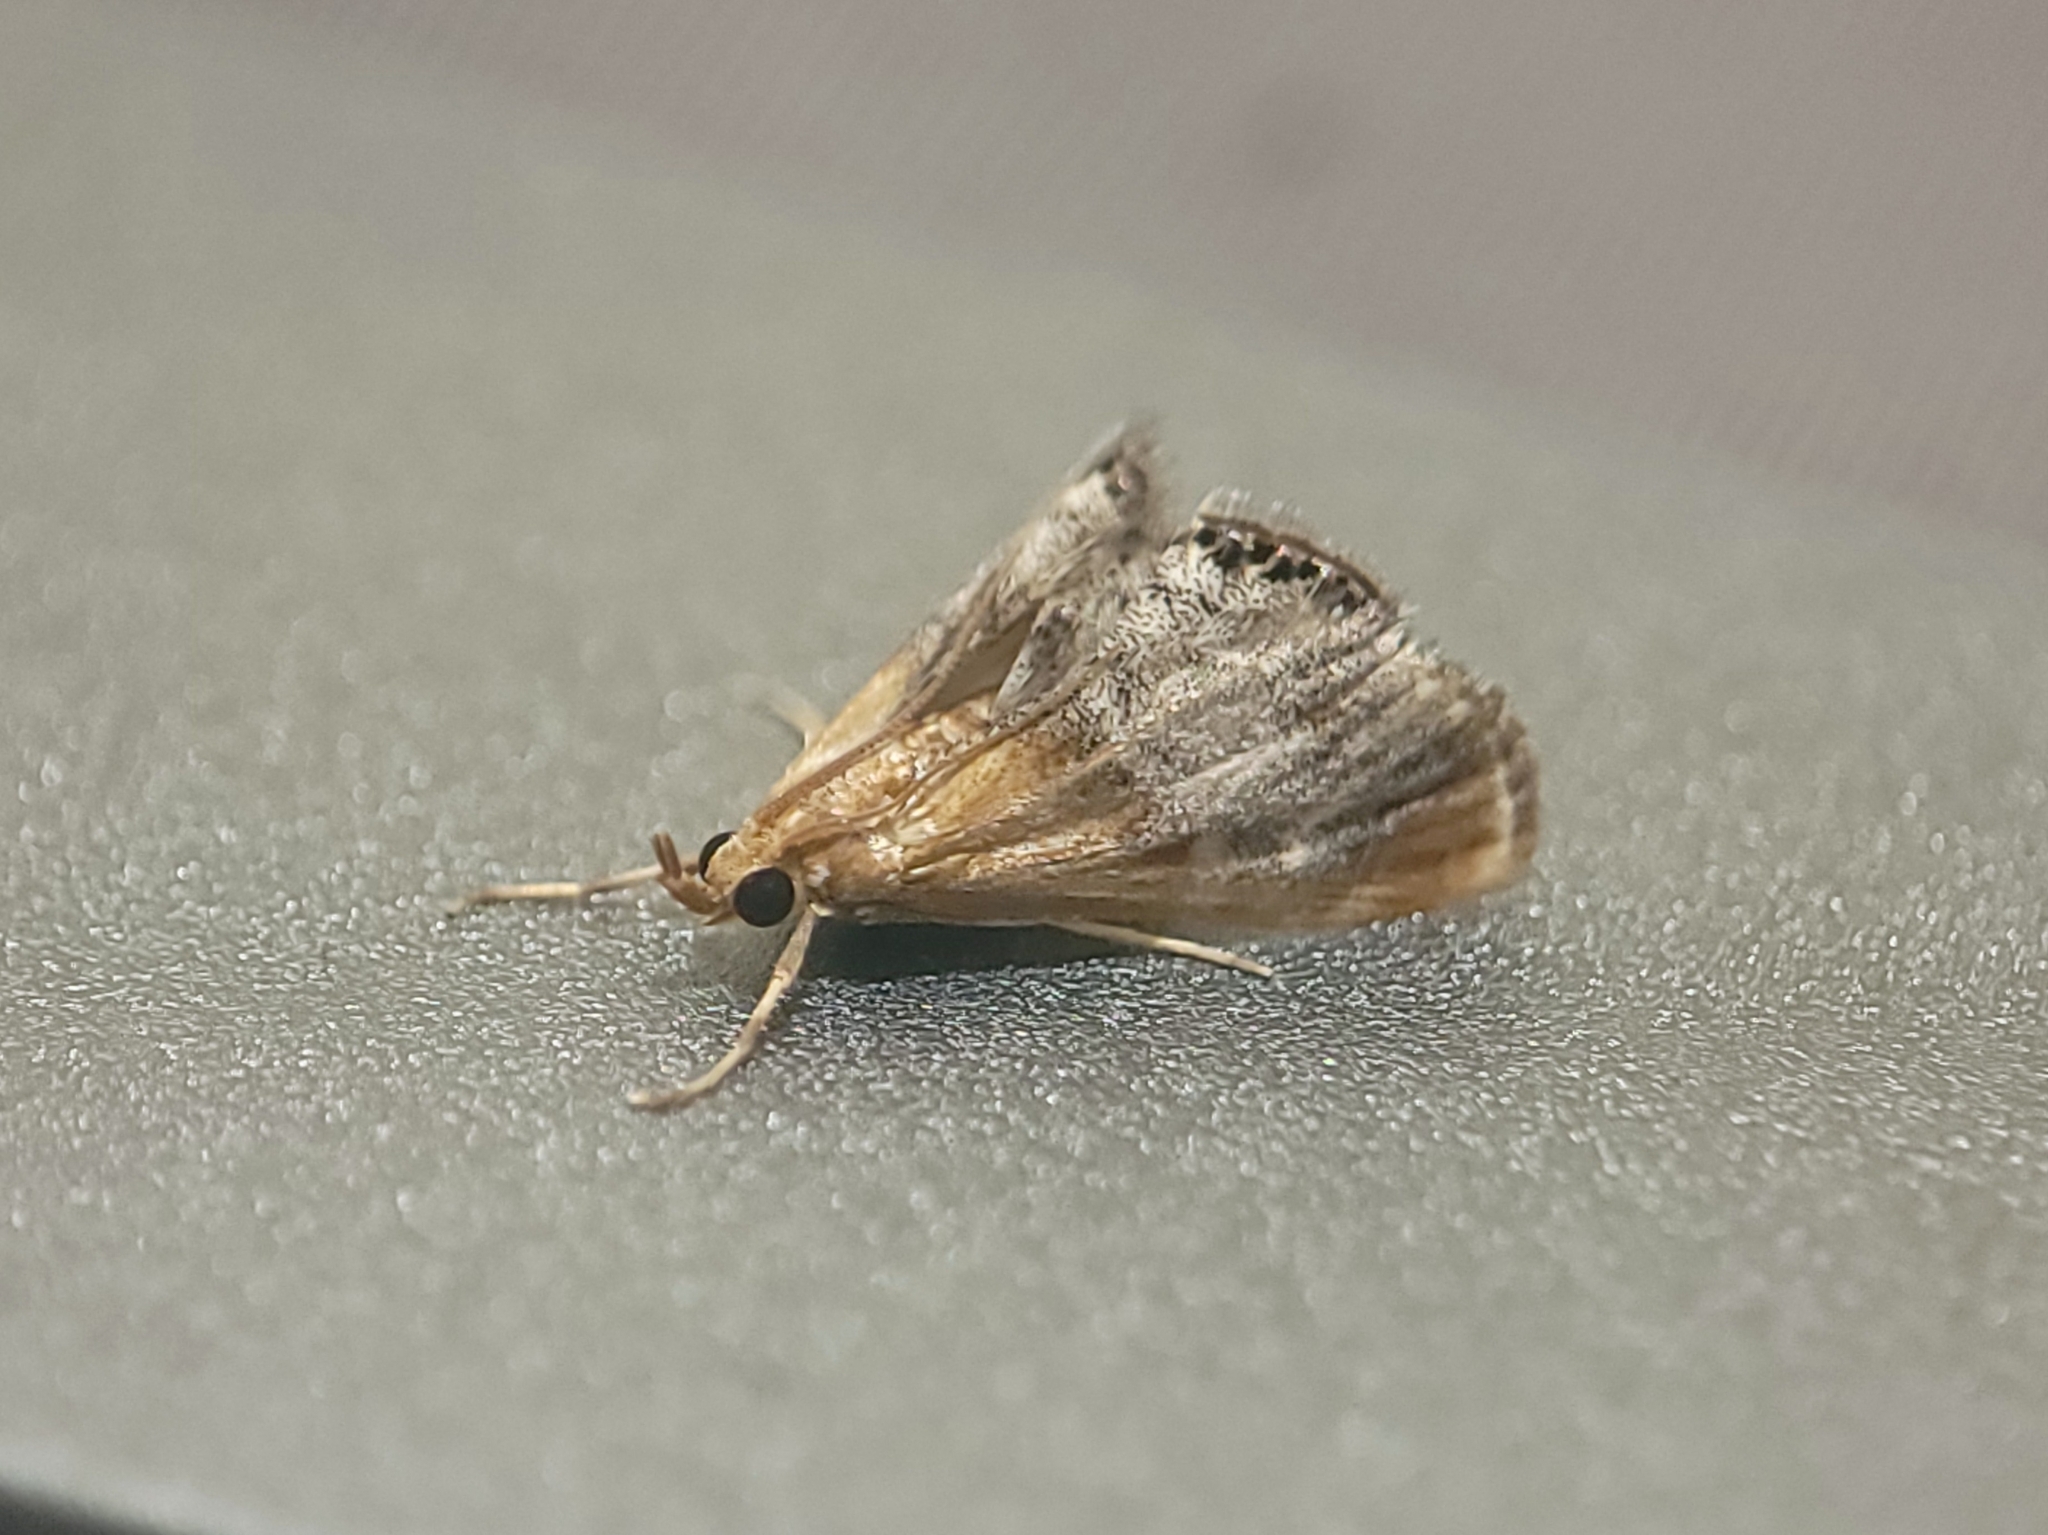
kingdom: Animalia
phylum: Arthropoda
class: Insecta
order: Lepidoptera
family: Crambidae
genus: Chalcoela
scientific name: Chalcoela iphitalis
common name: Sooty-winged chalcoela moth
